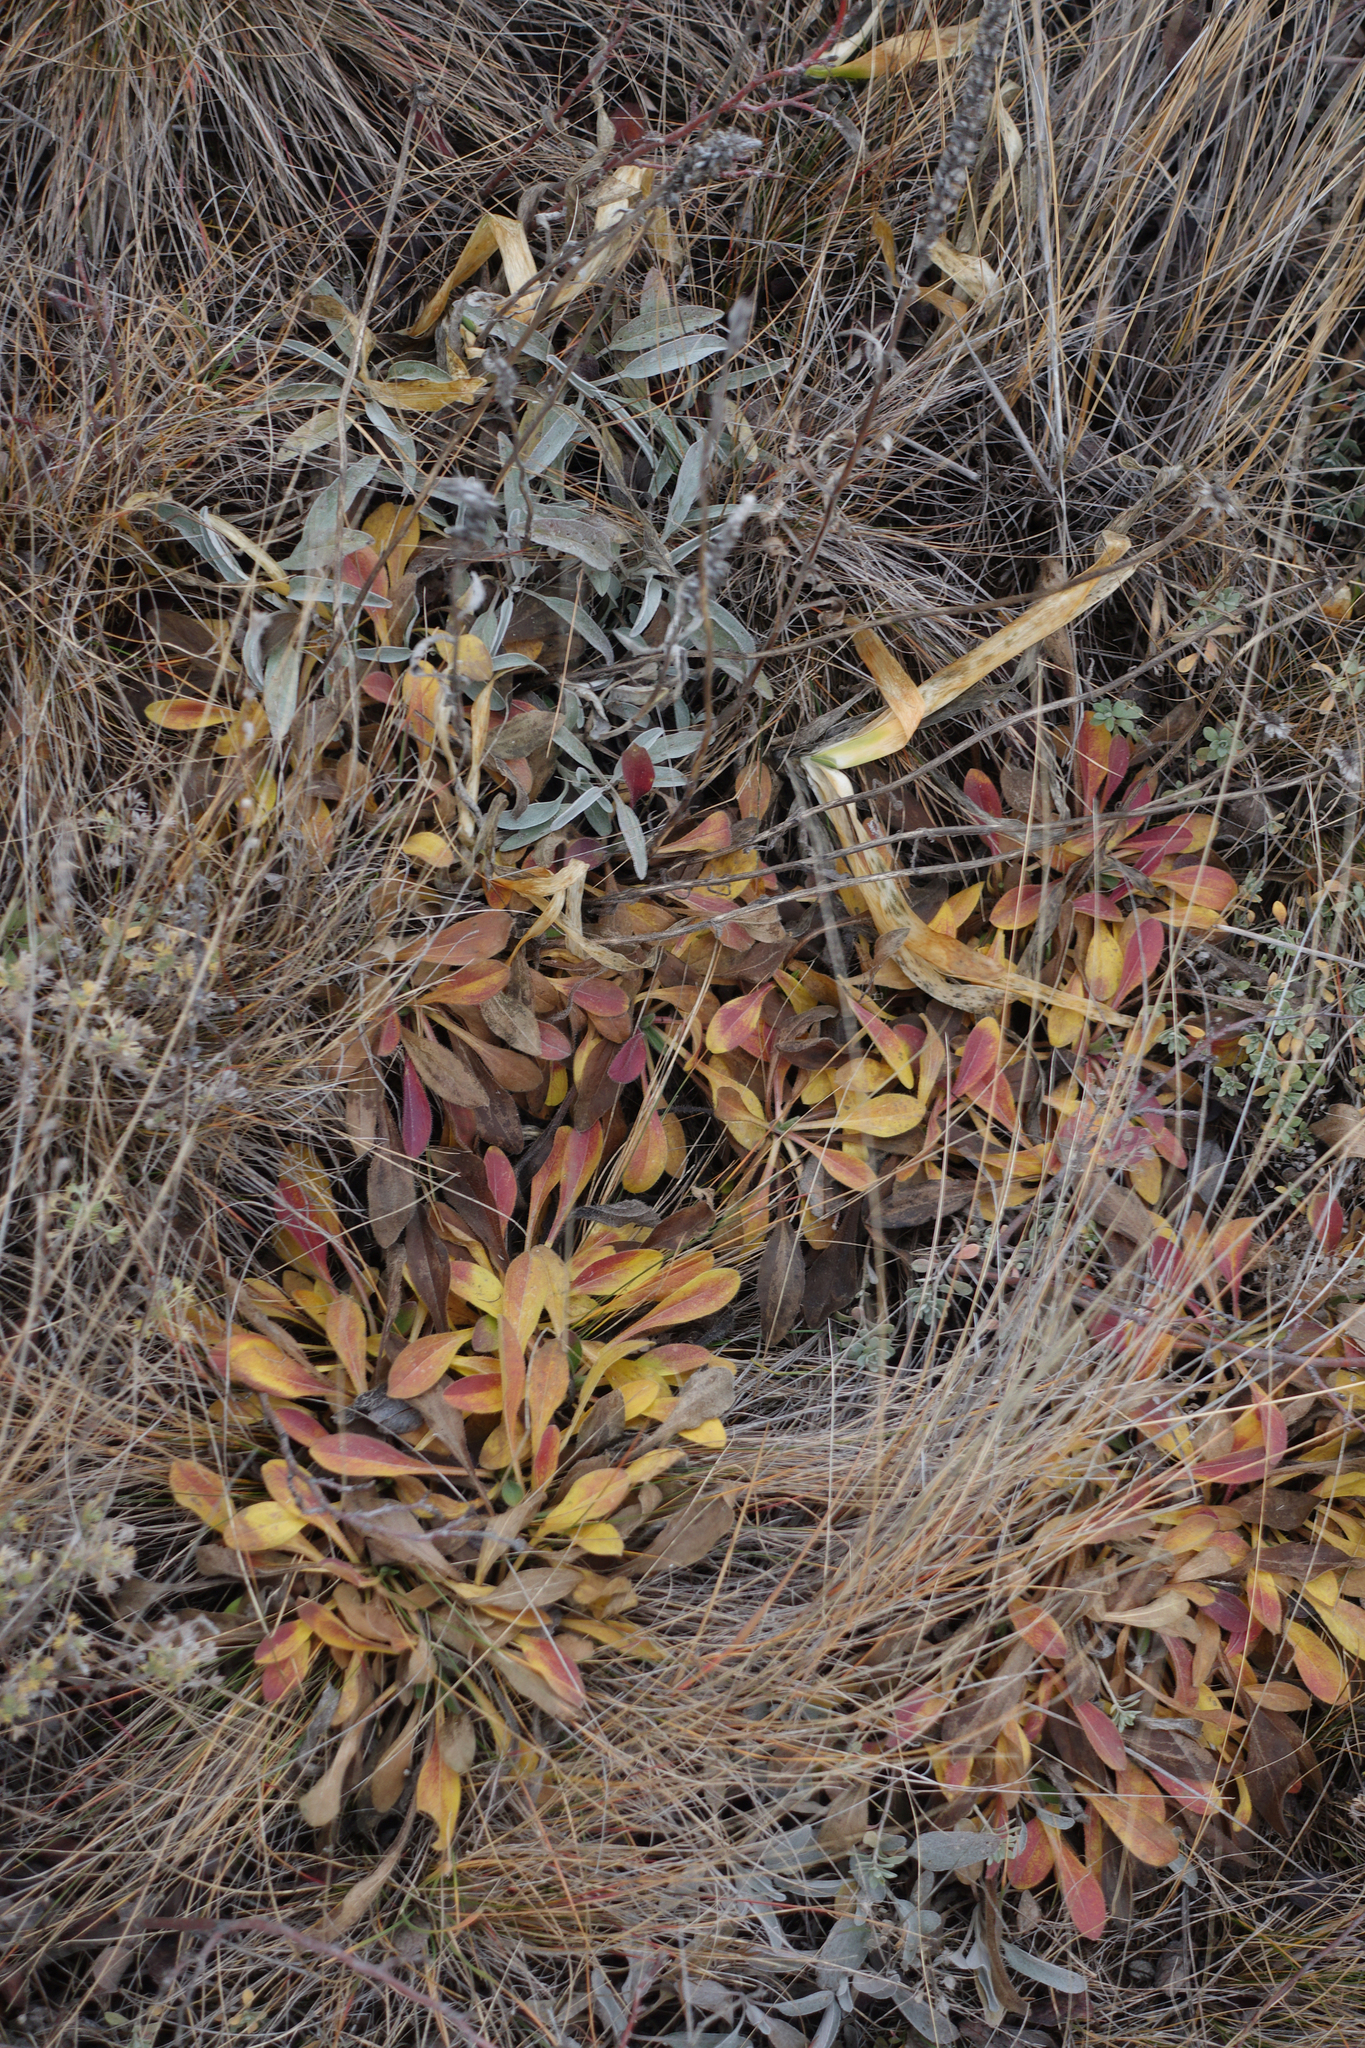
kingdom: Plantae
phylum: Tracheophyta
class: Magnoliopsida
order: Asterales
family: Asteraceae
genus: Aster
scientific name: Aster alpinus
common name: Alpine aster
